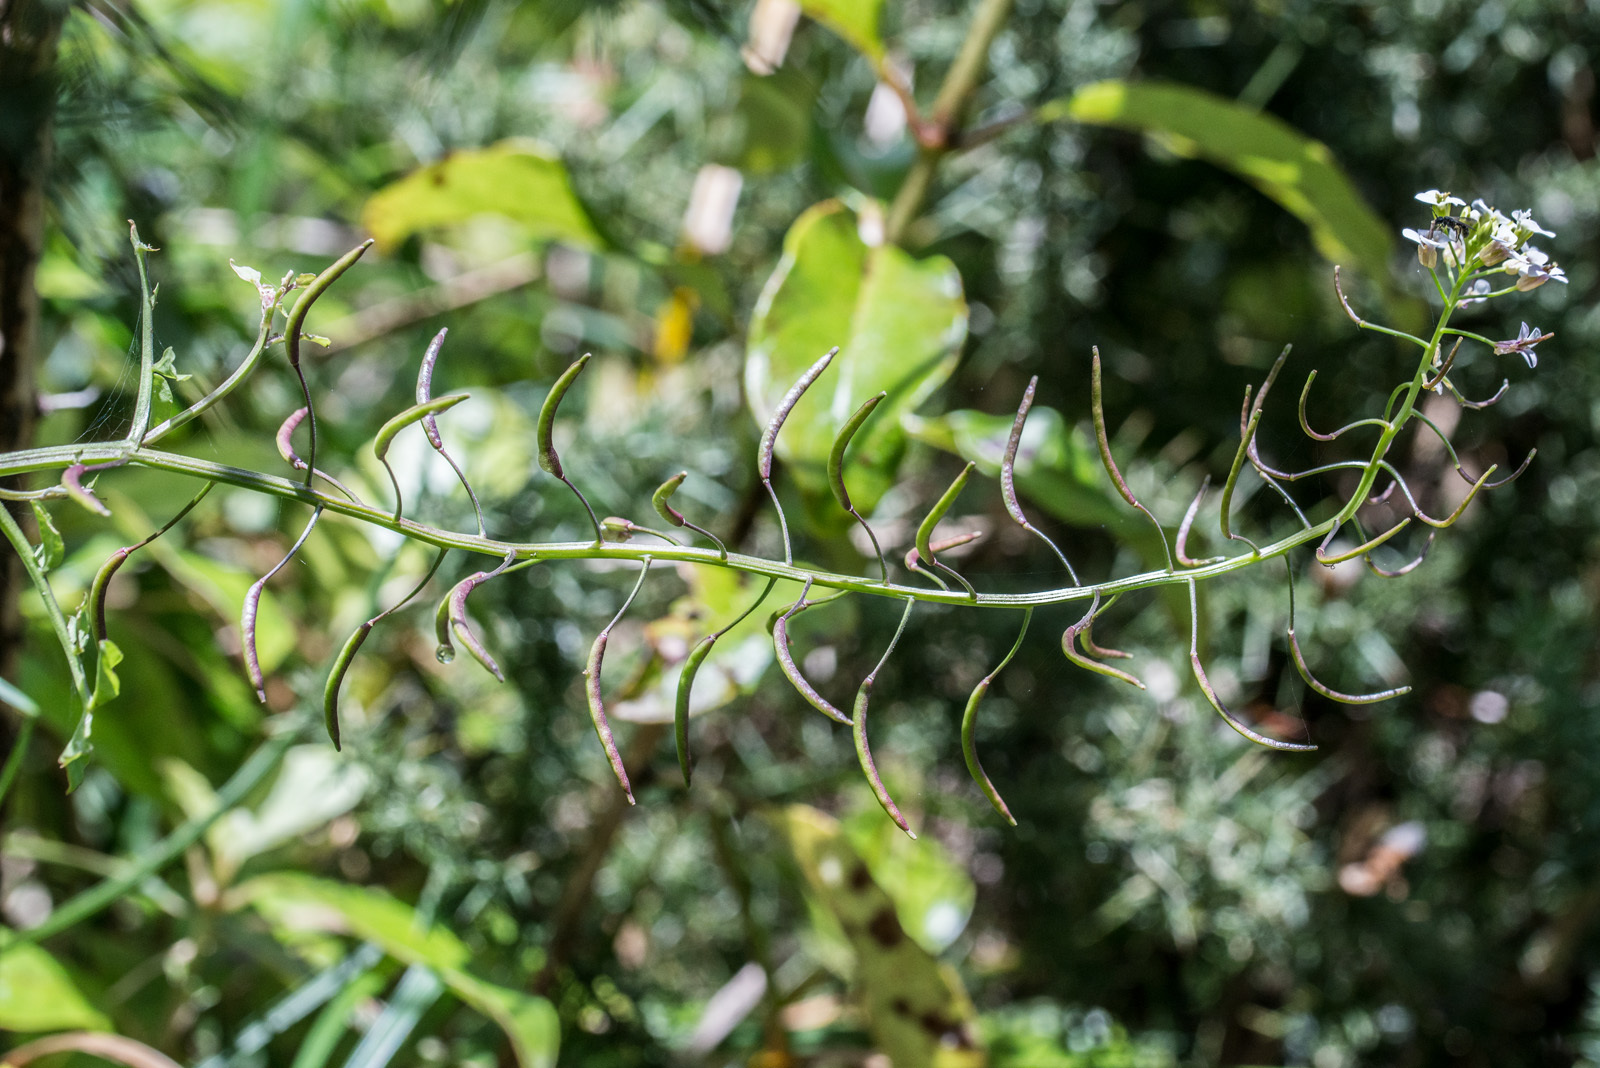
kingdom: Plantae
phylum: Tracheophyta
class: Magnoliopsida
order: Brassicales
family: Brassicaceae
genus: Nasturtium
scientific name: Nasturtium officinale
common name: Watercress
